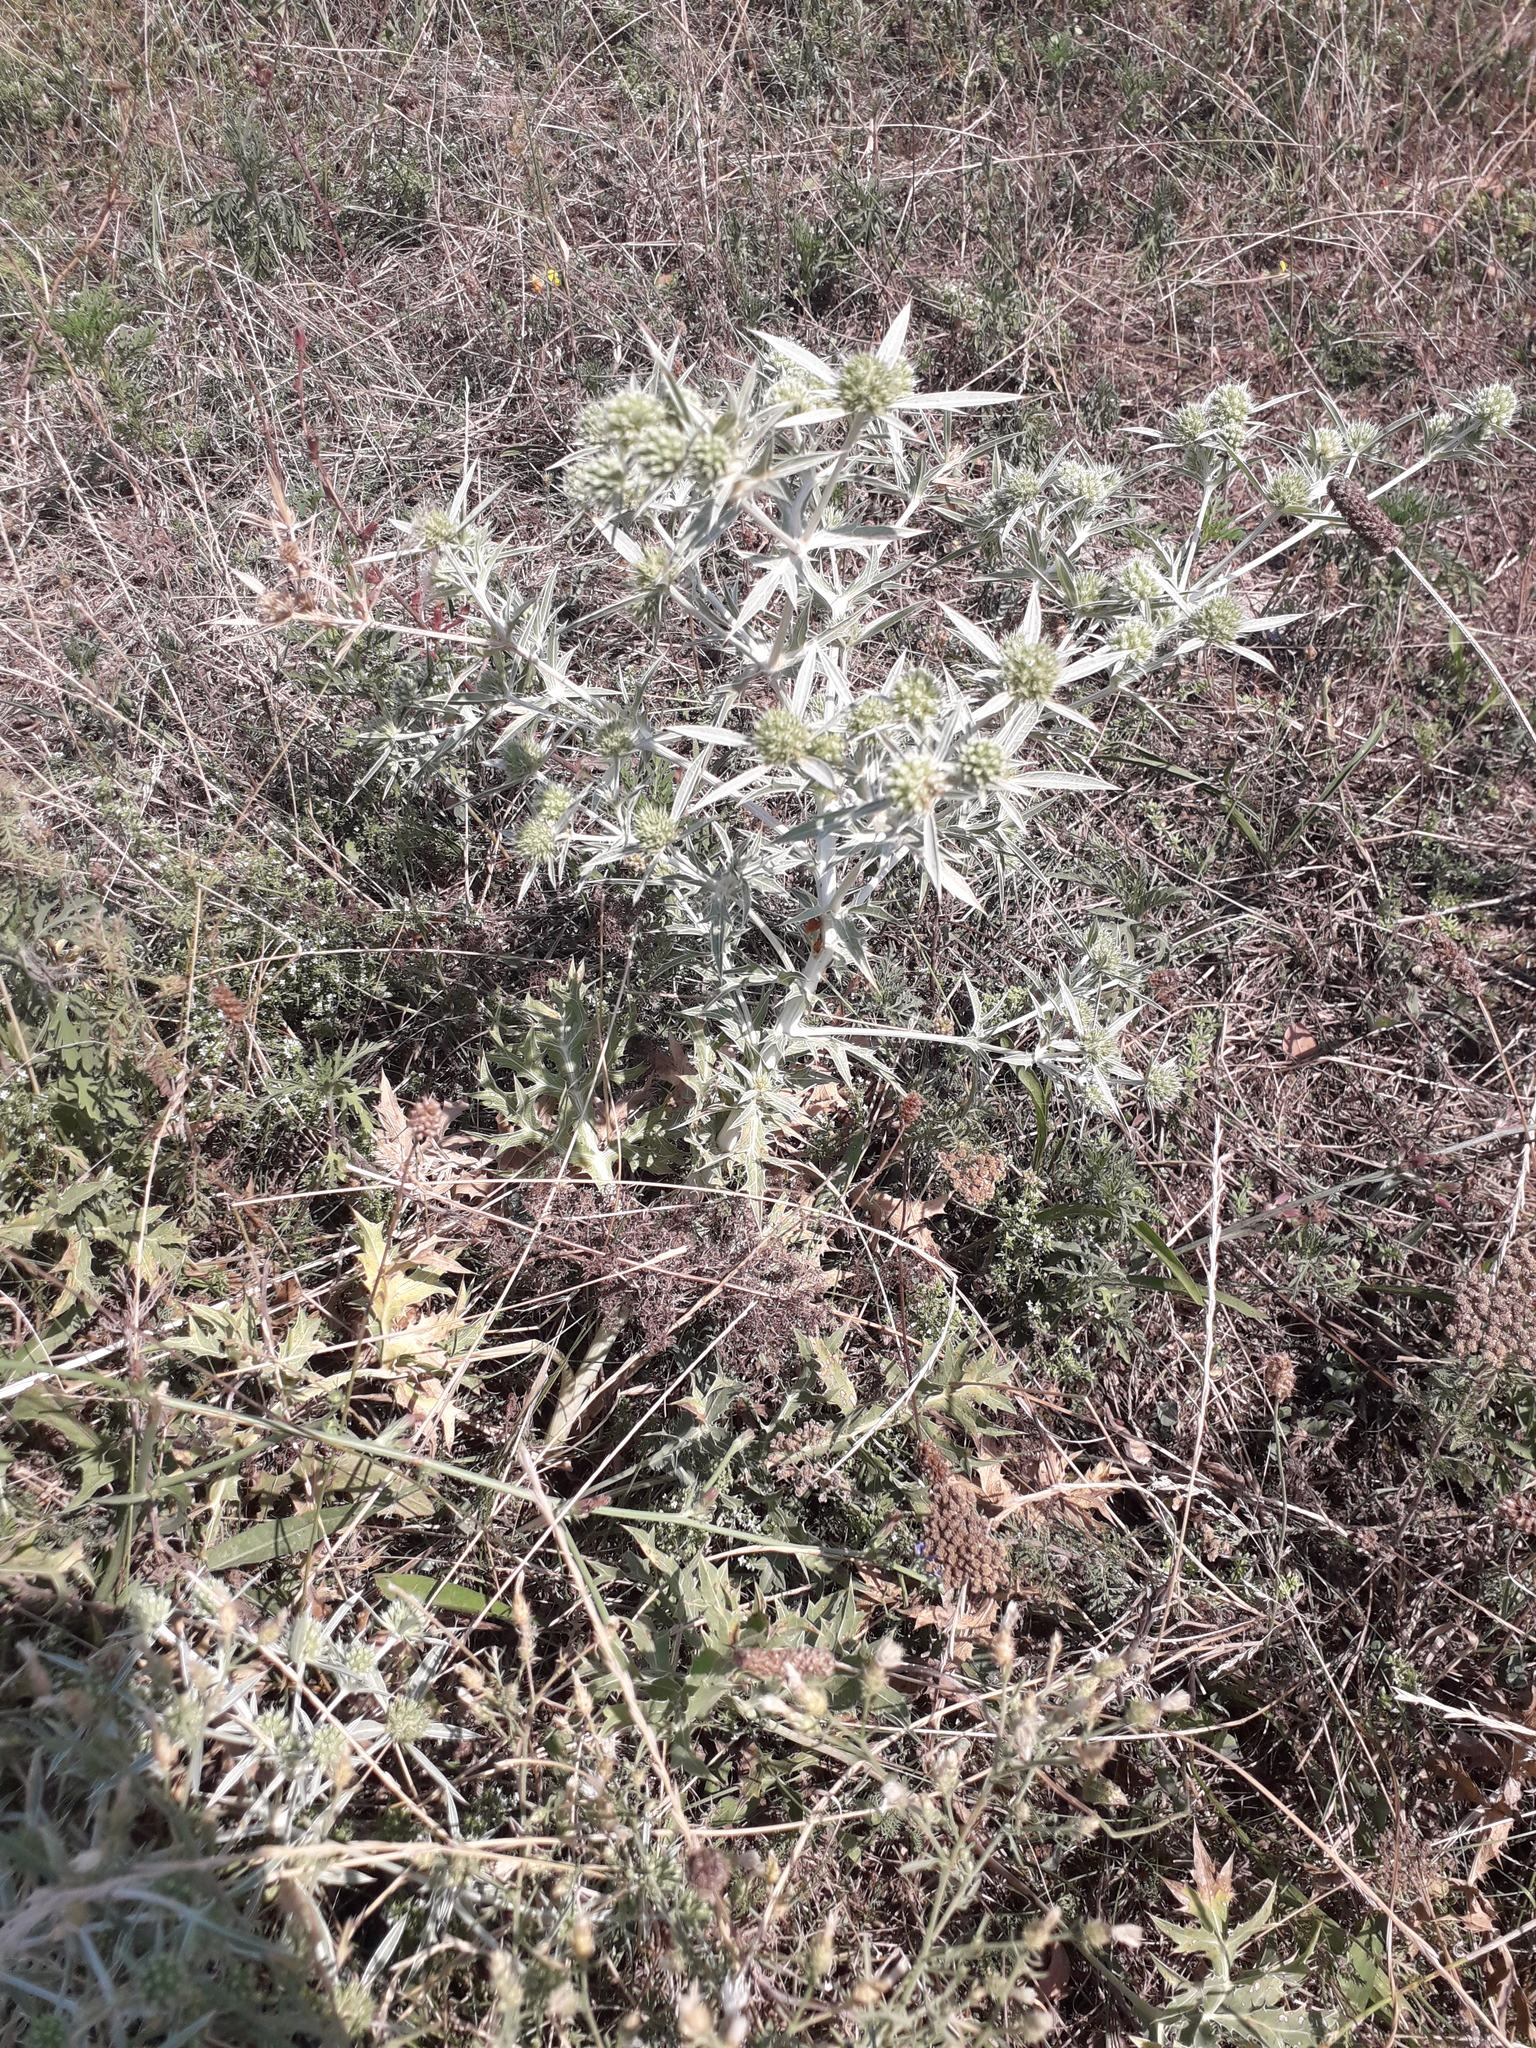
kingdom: Plantae
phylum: Tracheophyta
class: Magnoliopsida
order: Apiales
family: Apiaceae
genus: Eryngium
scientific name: Eryngium campestre
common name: Field eryngo
